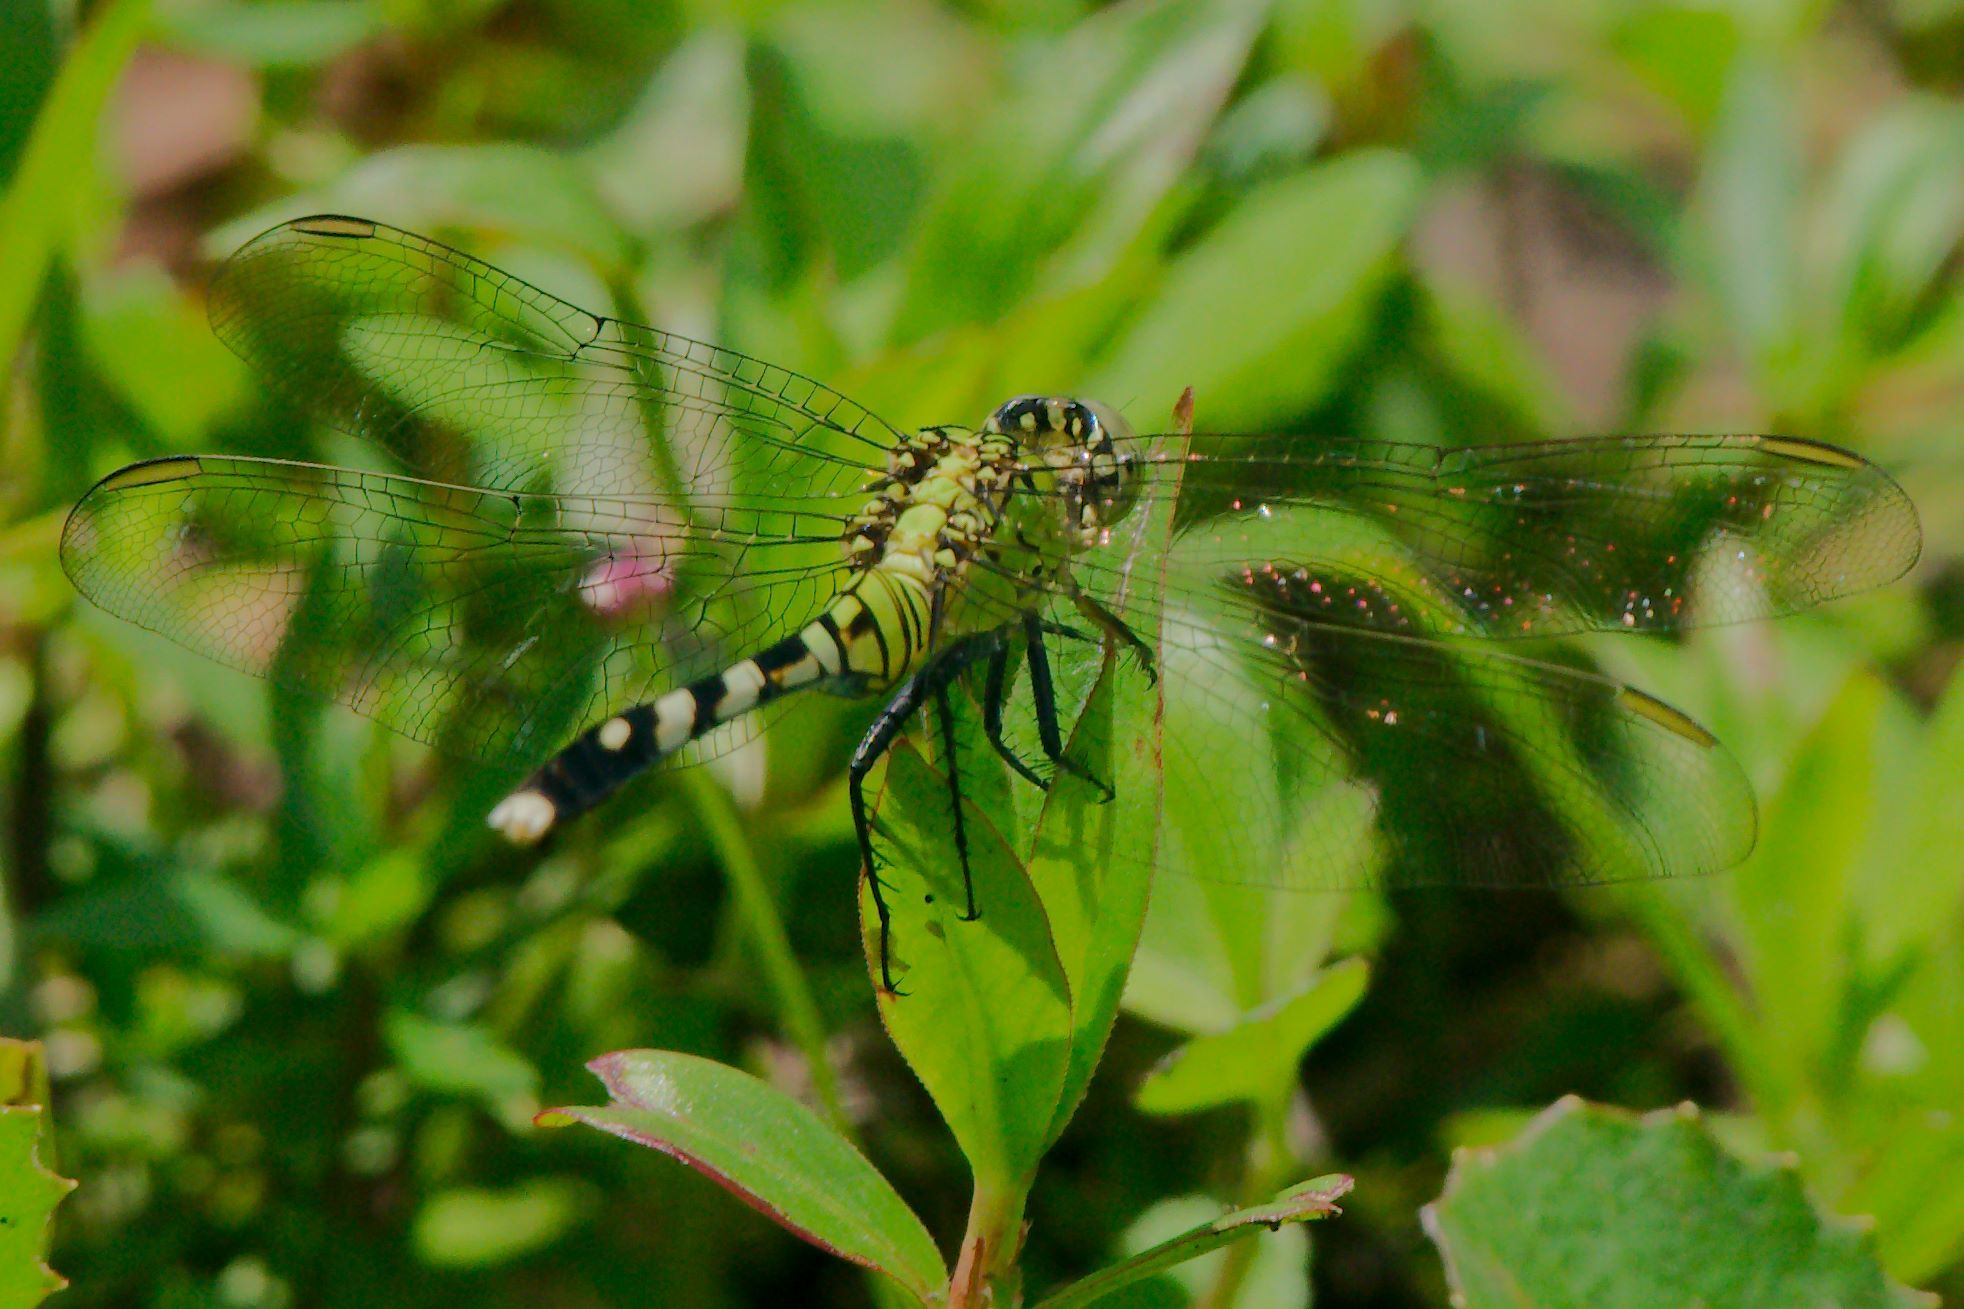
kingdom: Animalia
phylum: Arthropoda
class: Insecta
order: Odonata
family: Libellulidae
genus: Erythemis
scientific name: Erythemis simplicicollis
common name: Eastern pondhawk
